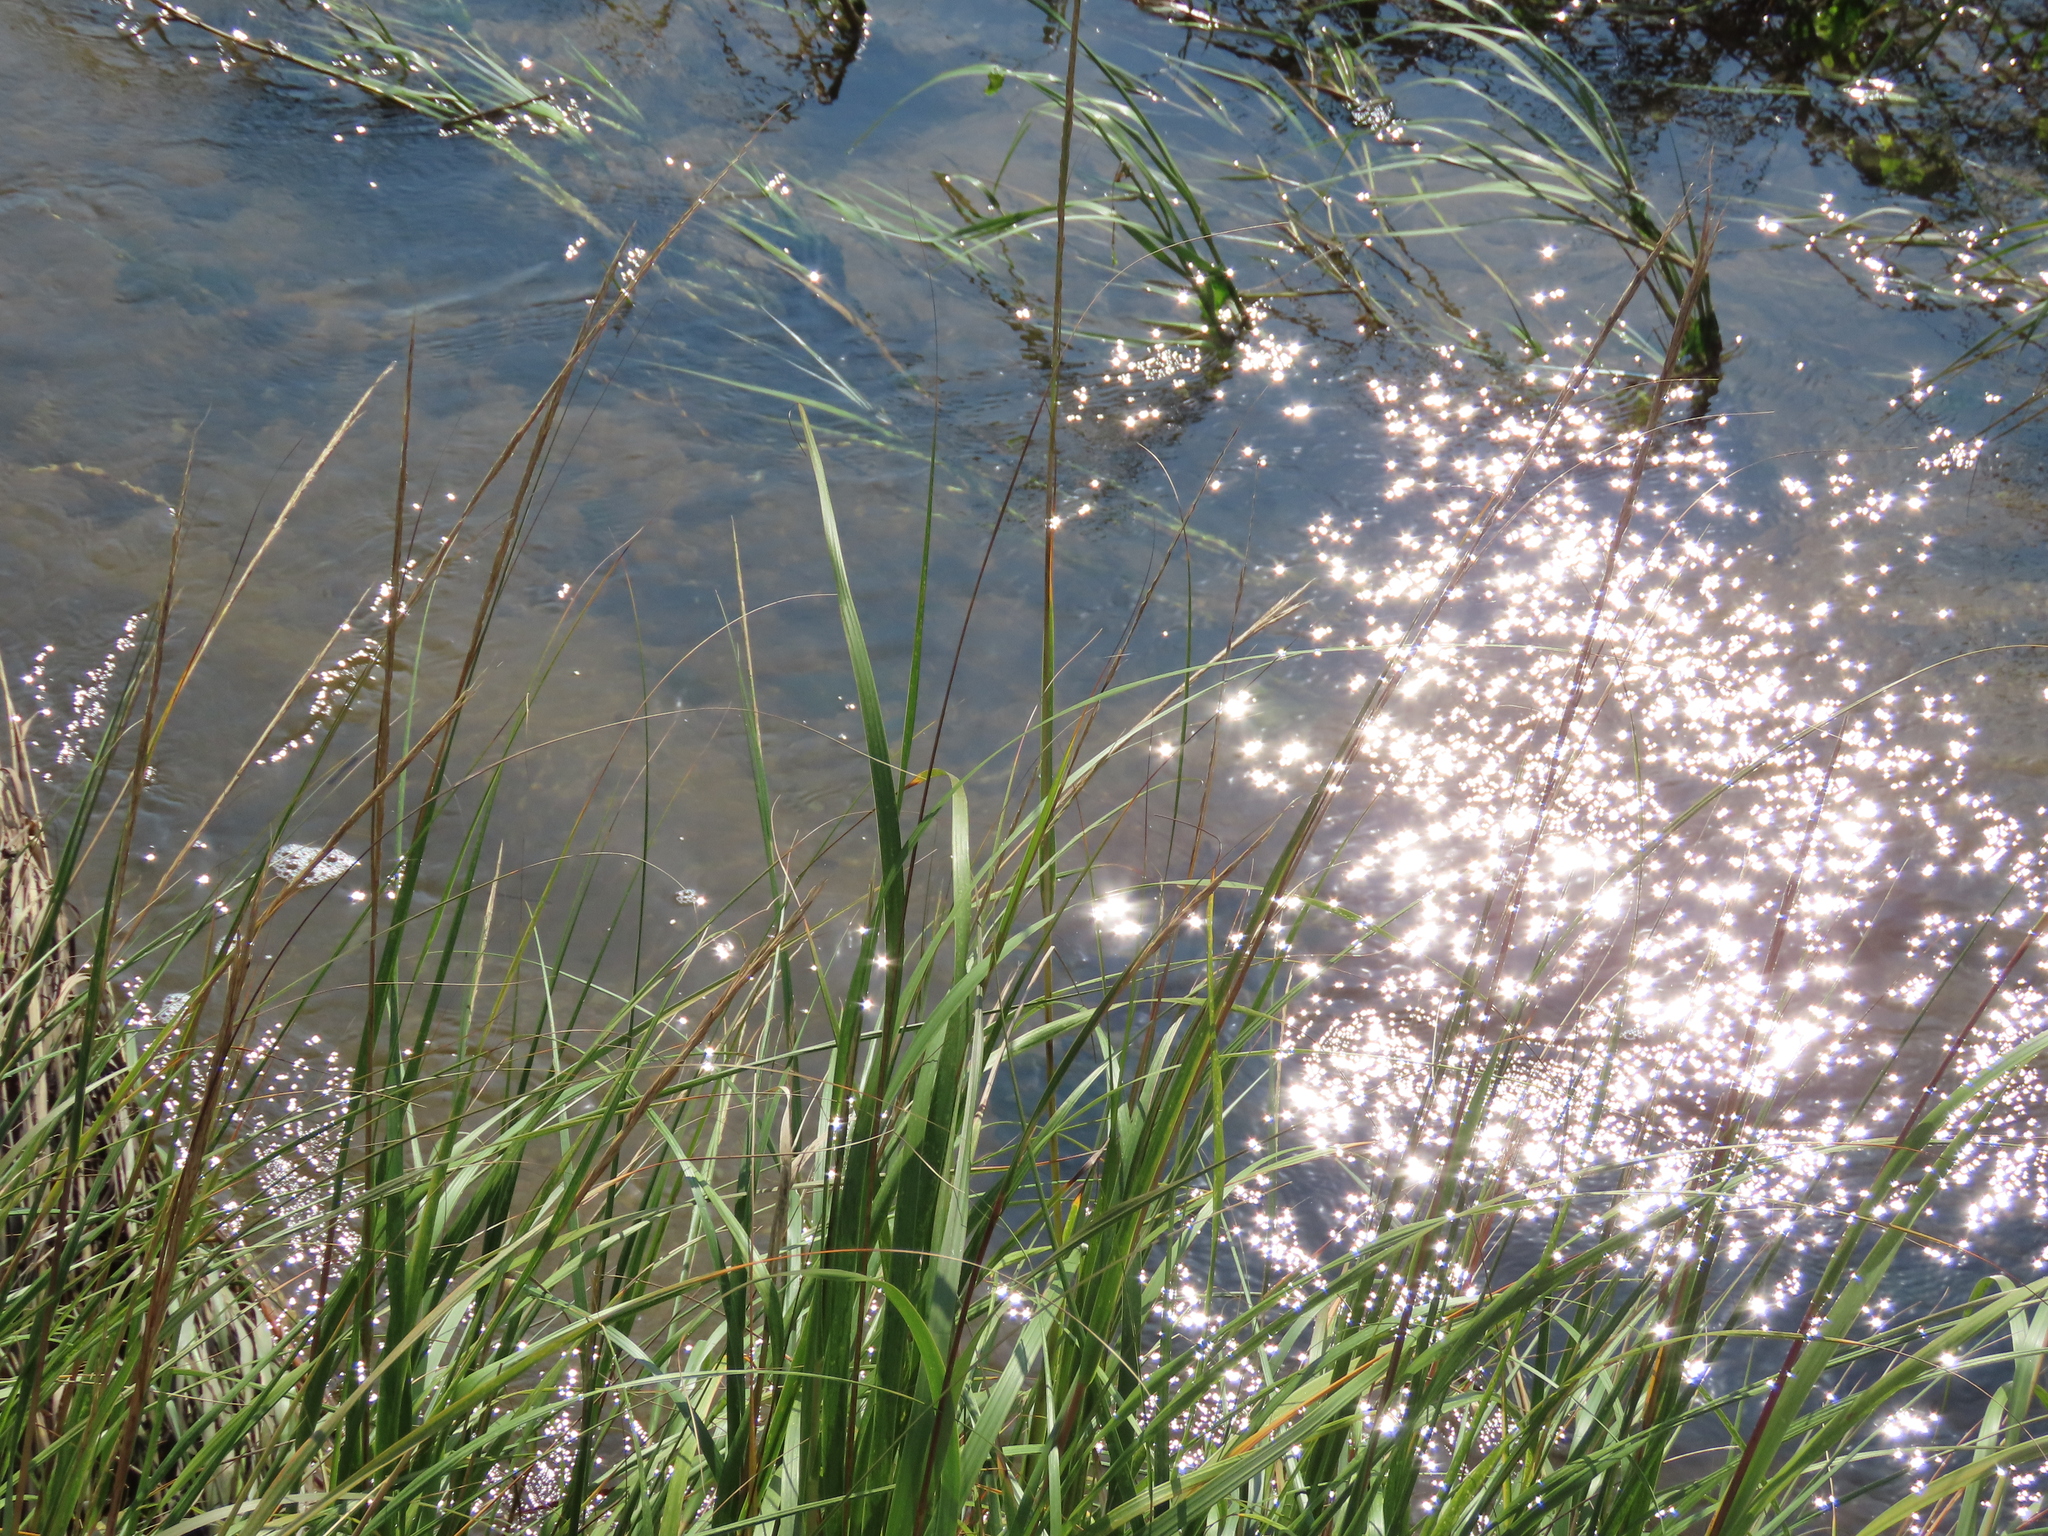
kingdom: Plantae
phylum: Tracheophyta
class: Liliopsida
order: Poales
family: Poaceae
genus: Sporobolus
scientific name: Sporobolus alterniflorus
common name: Atlantic cordgrass
